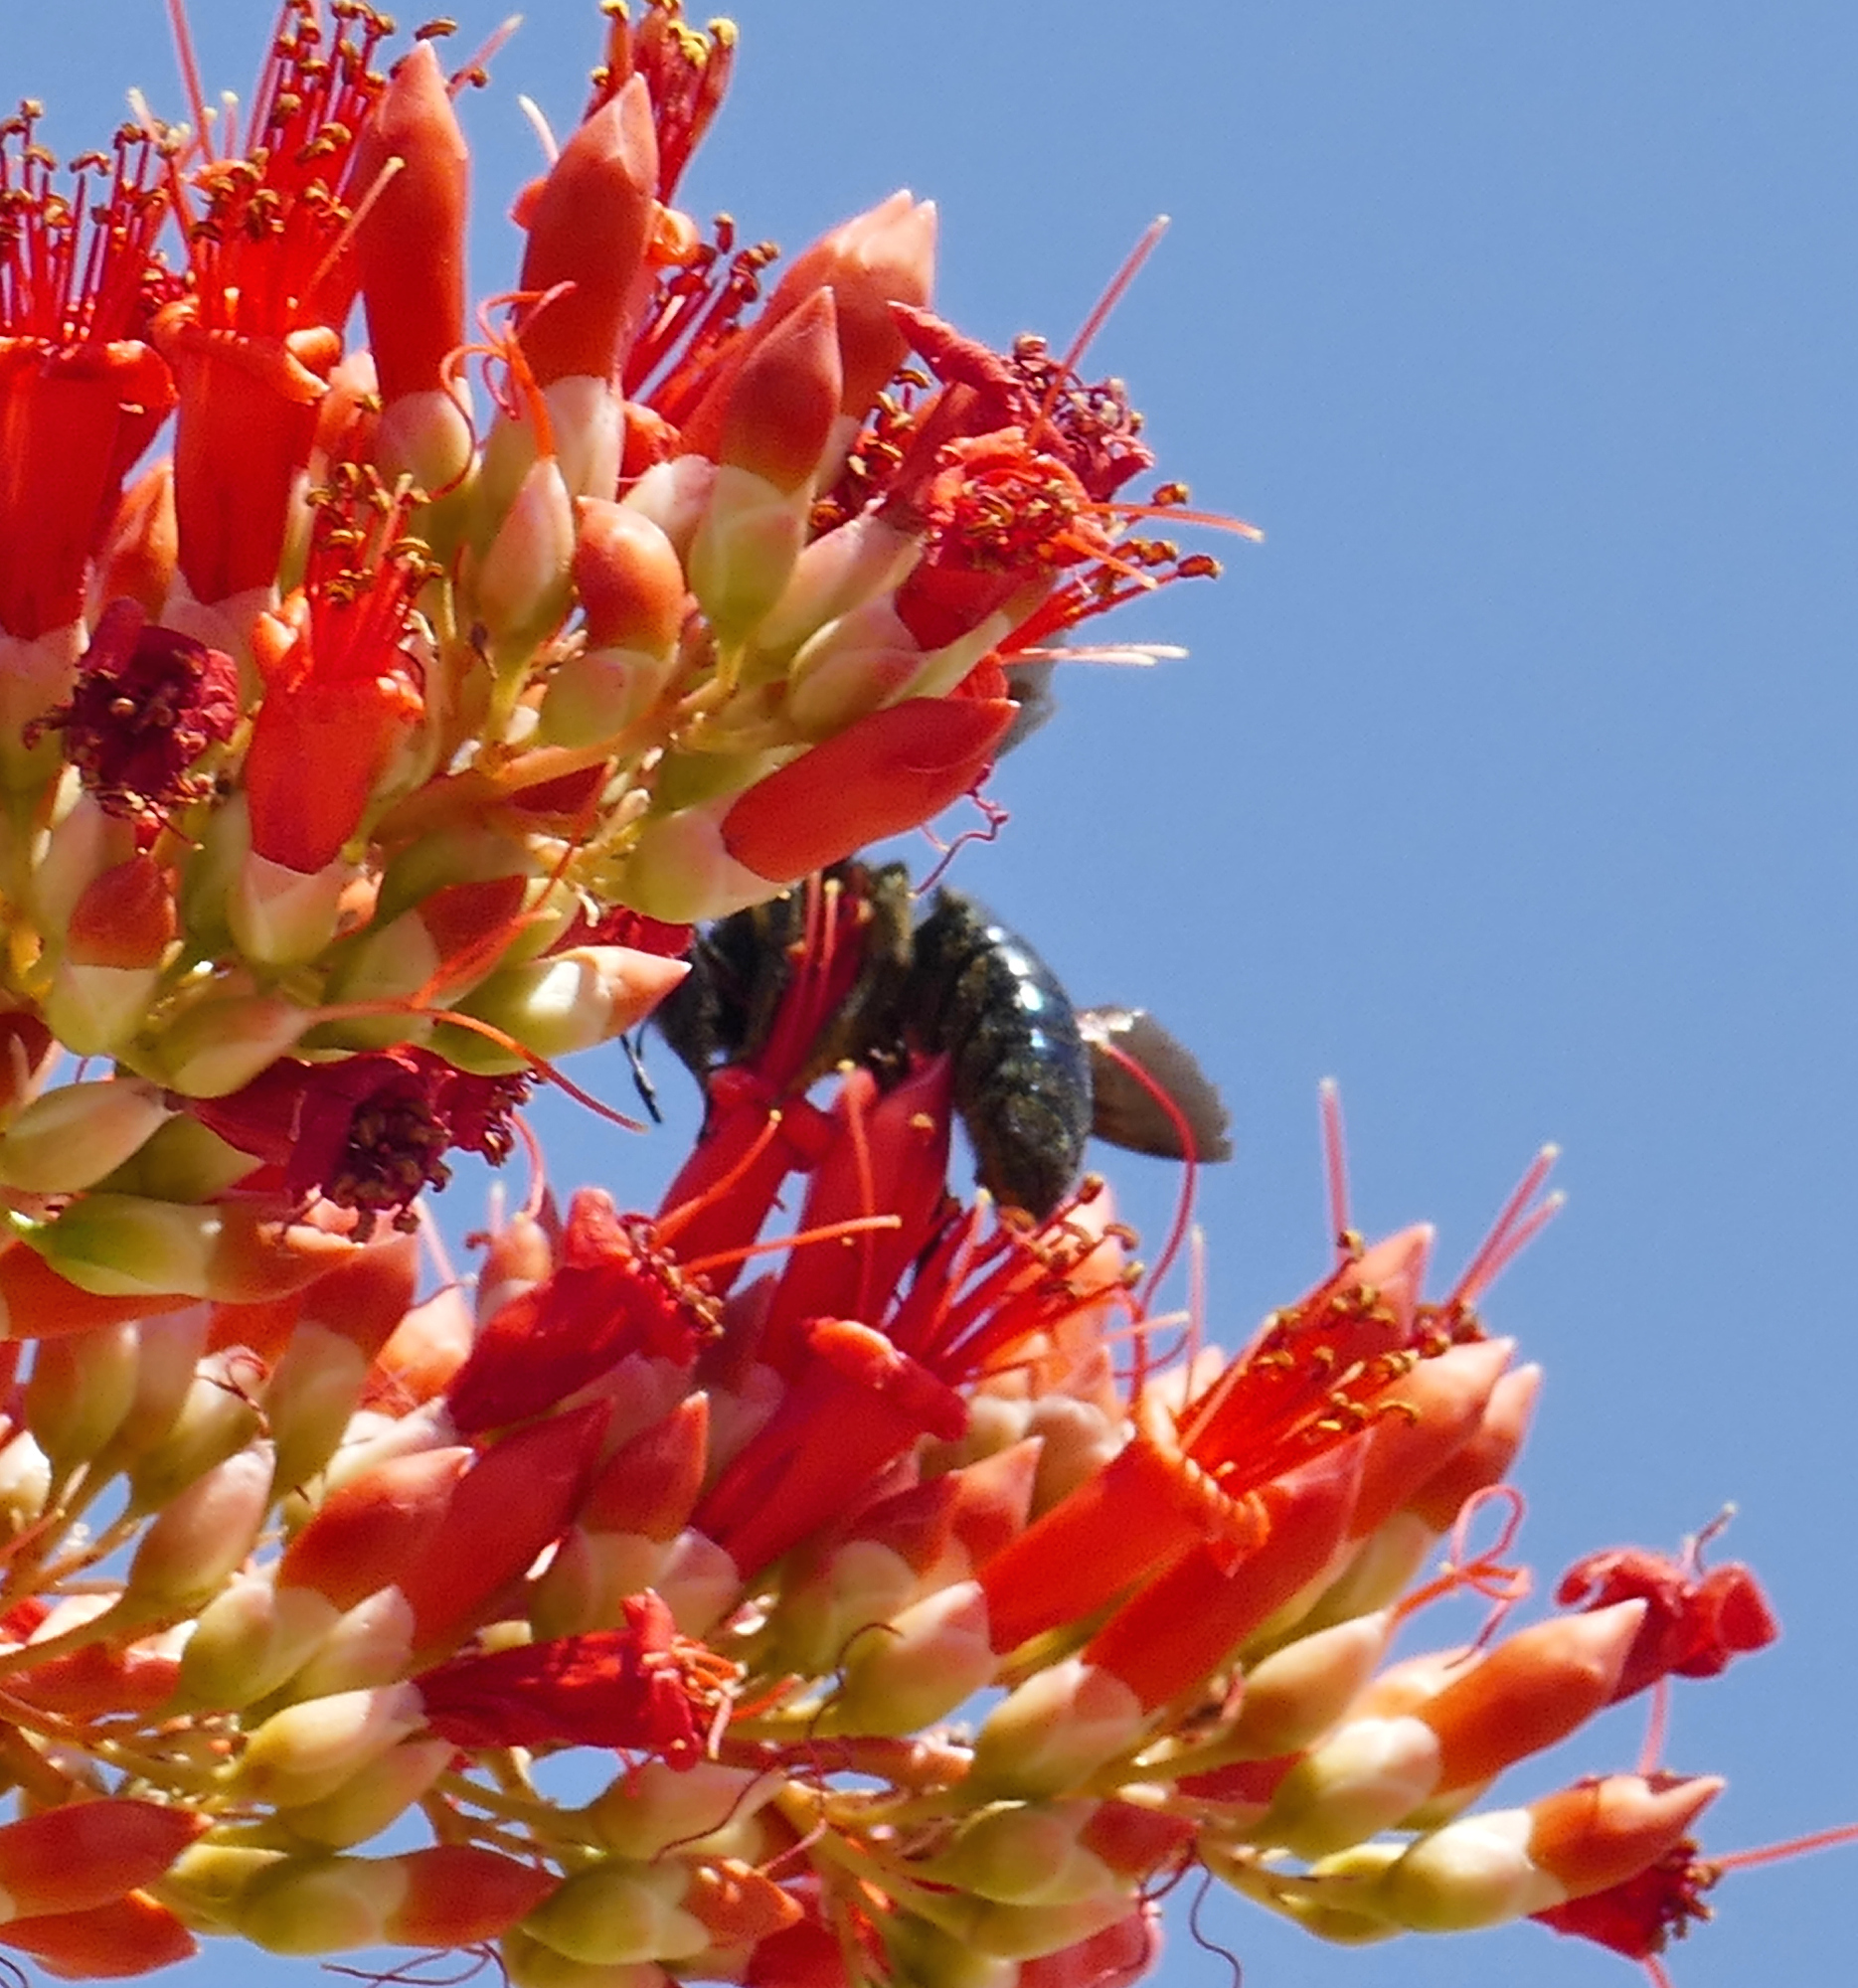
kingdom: Animalia
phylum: Arthropoda
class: Insecta
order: Hymenoptera
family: Apidae
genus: Xylocopa
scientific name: Xylocopa californica
